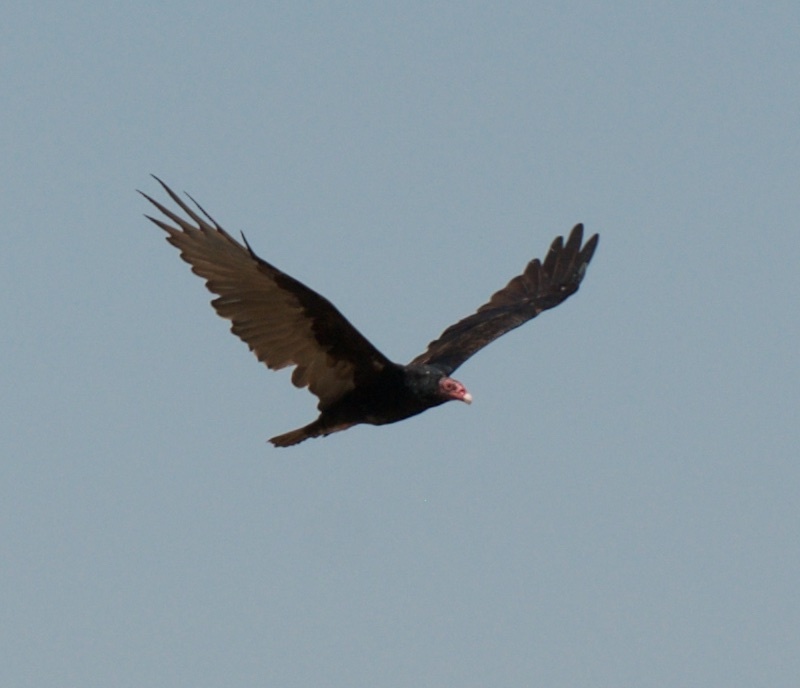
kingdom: Animalia
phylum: Chordata
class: Aves
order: Accipitriformes
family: Cathartidae
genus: Cathartes
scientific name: Cathartes aura
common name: Turkey vulture
